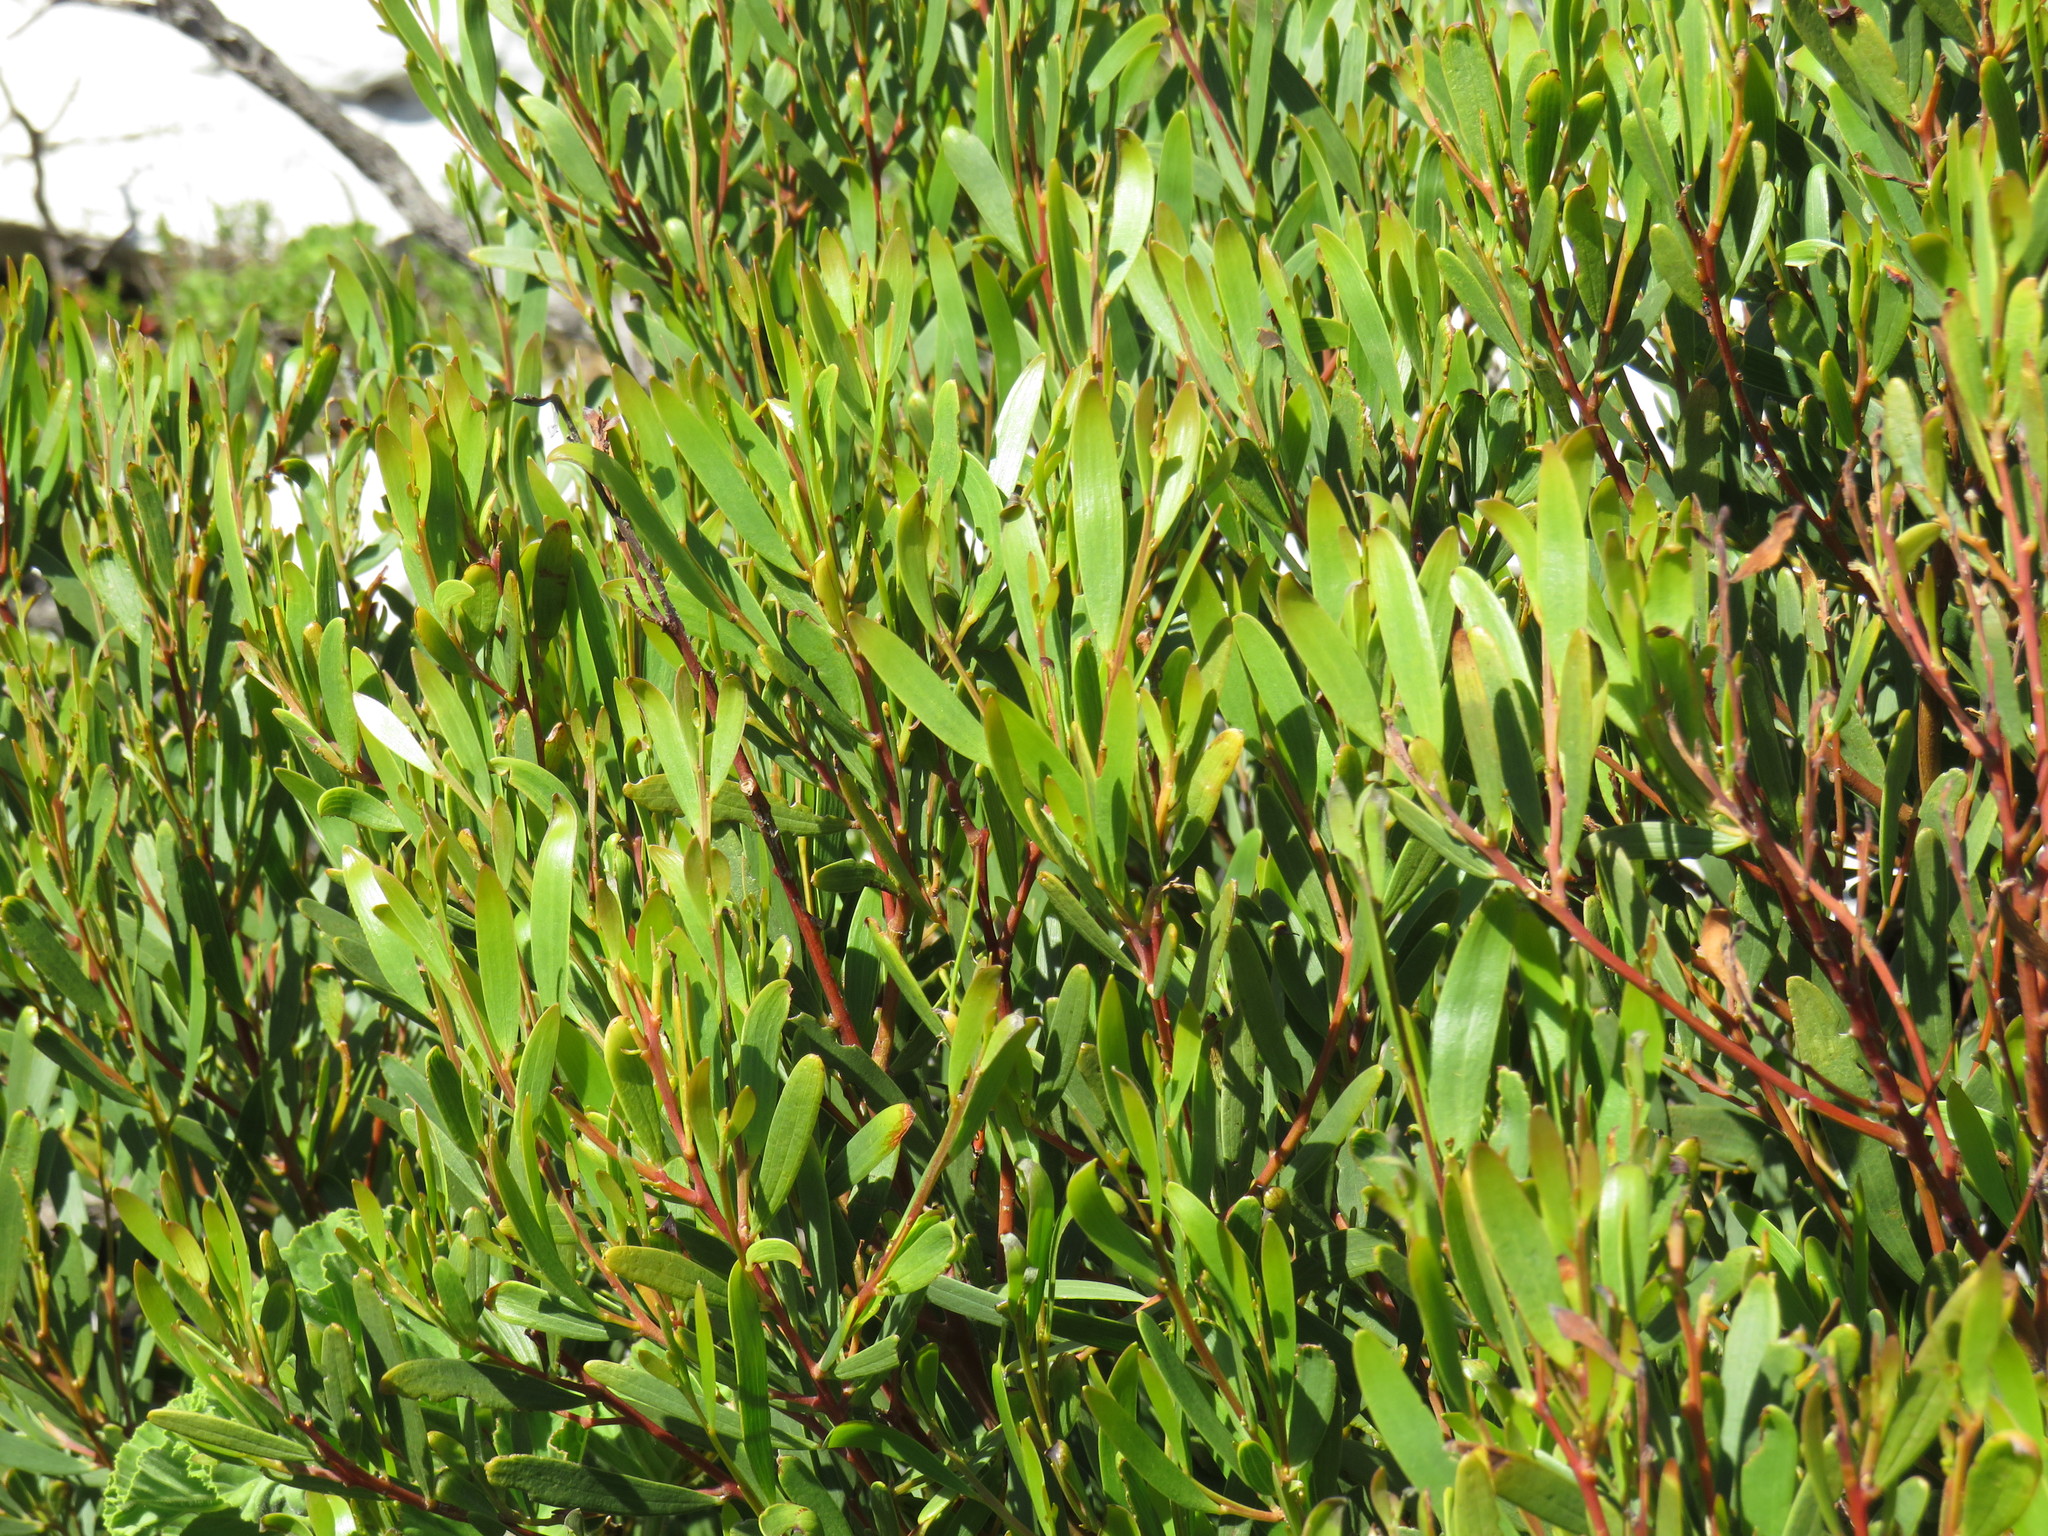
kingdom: Plantae
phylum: Tracheophyta
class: Magnoliopsida
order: Fabales
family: Fabaceae
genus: Acacia
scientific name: Acacia cyclops
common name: Coastal wattle
